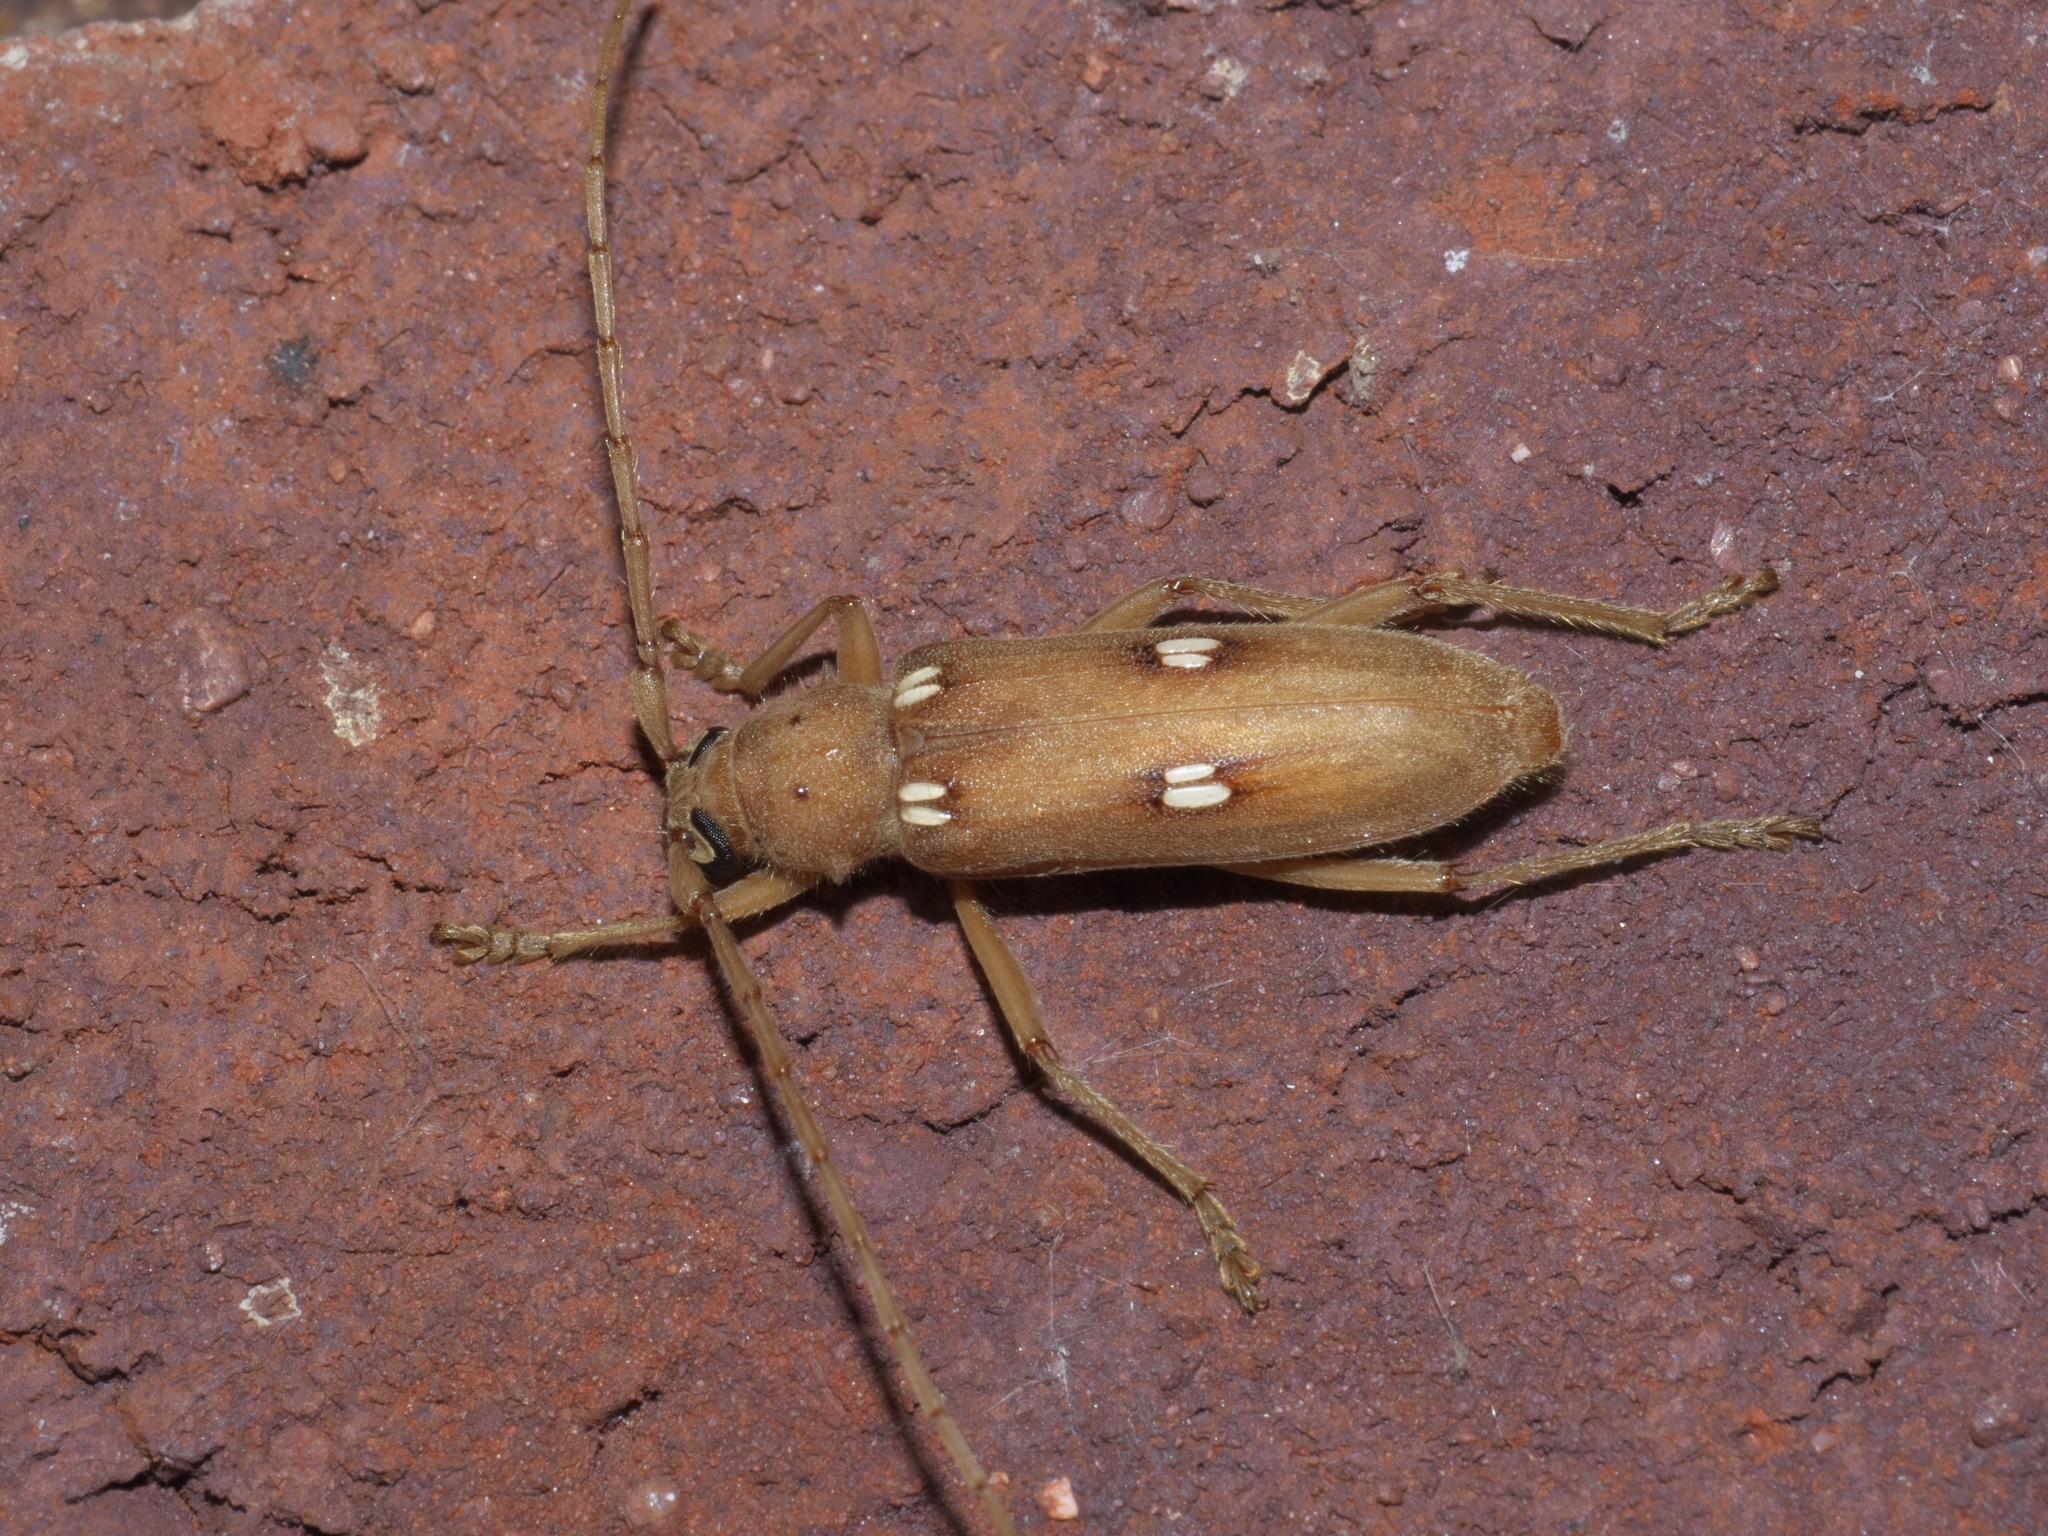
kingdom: Animalia
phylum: Arthropoda
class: Insecta
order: Coleoptera
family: Cerambycidae
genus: Eburia
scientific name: Eburia haldemani
